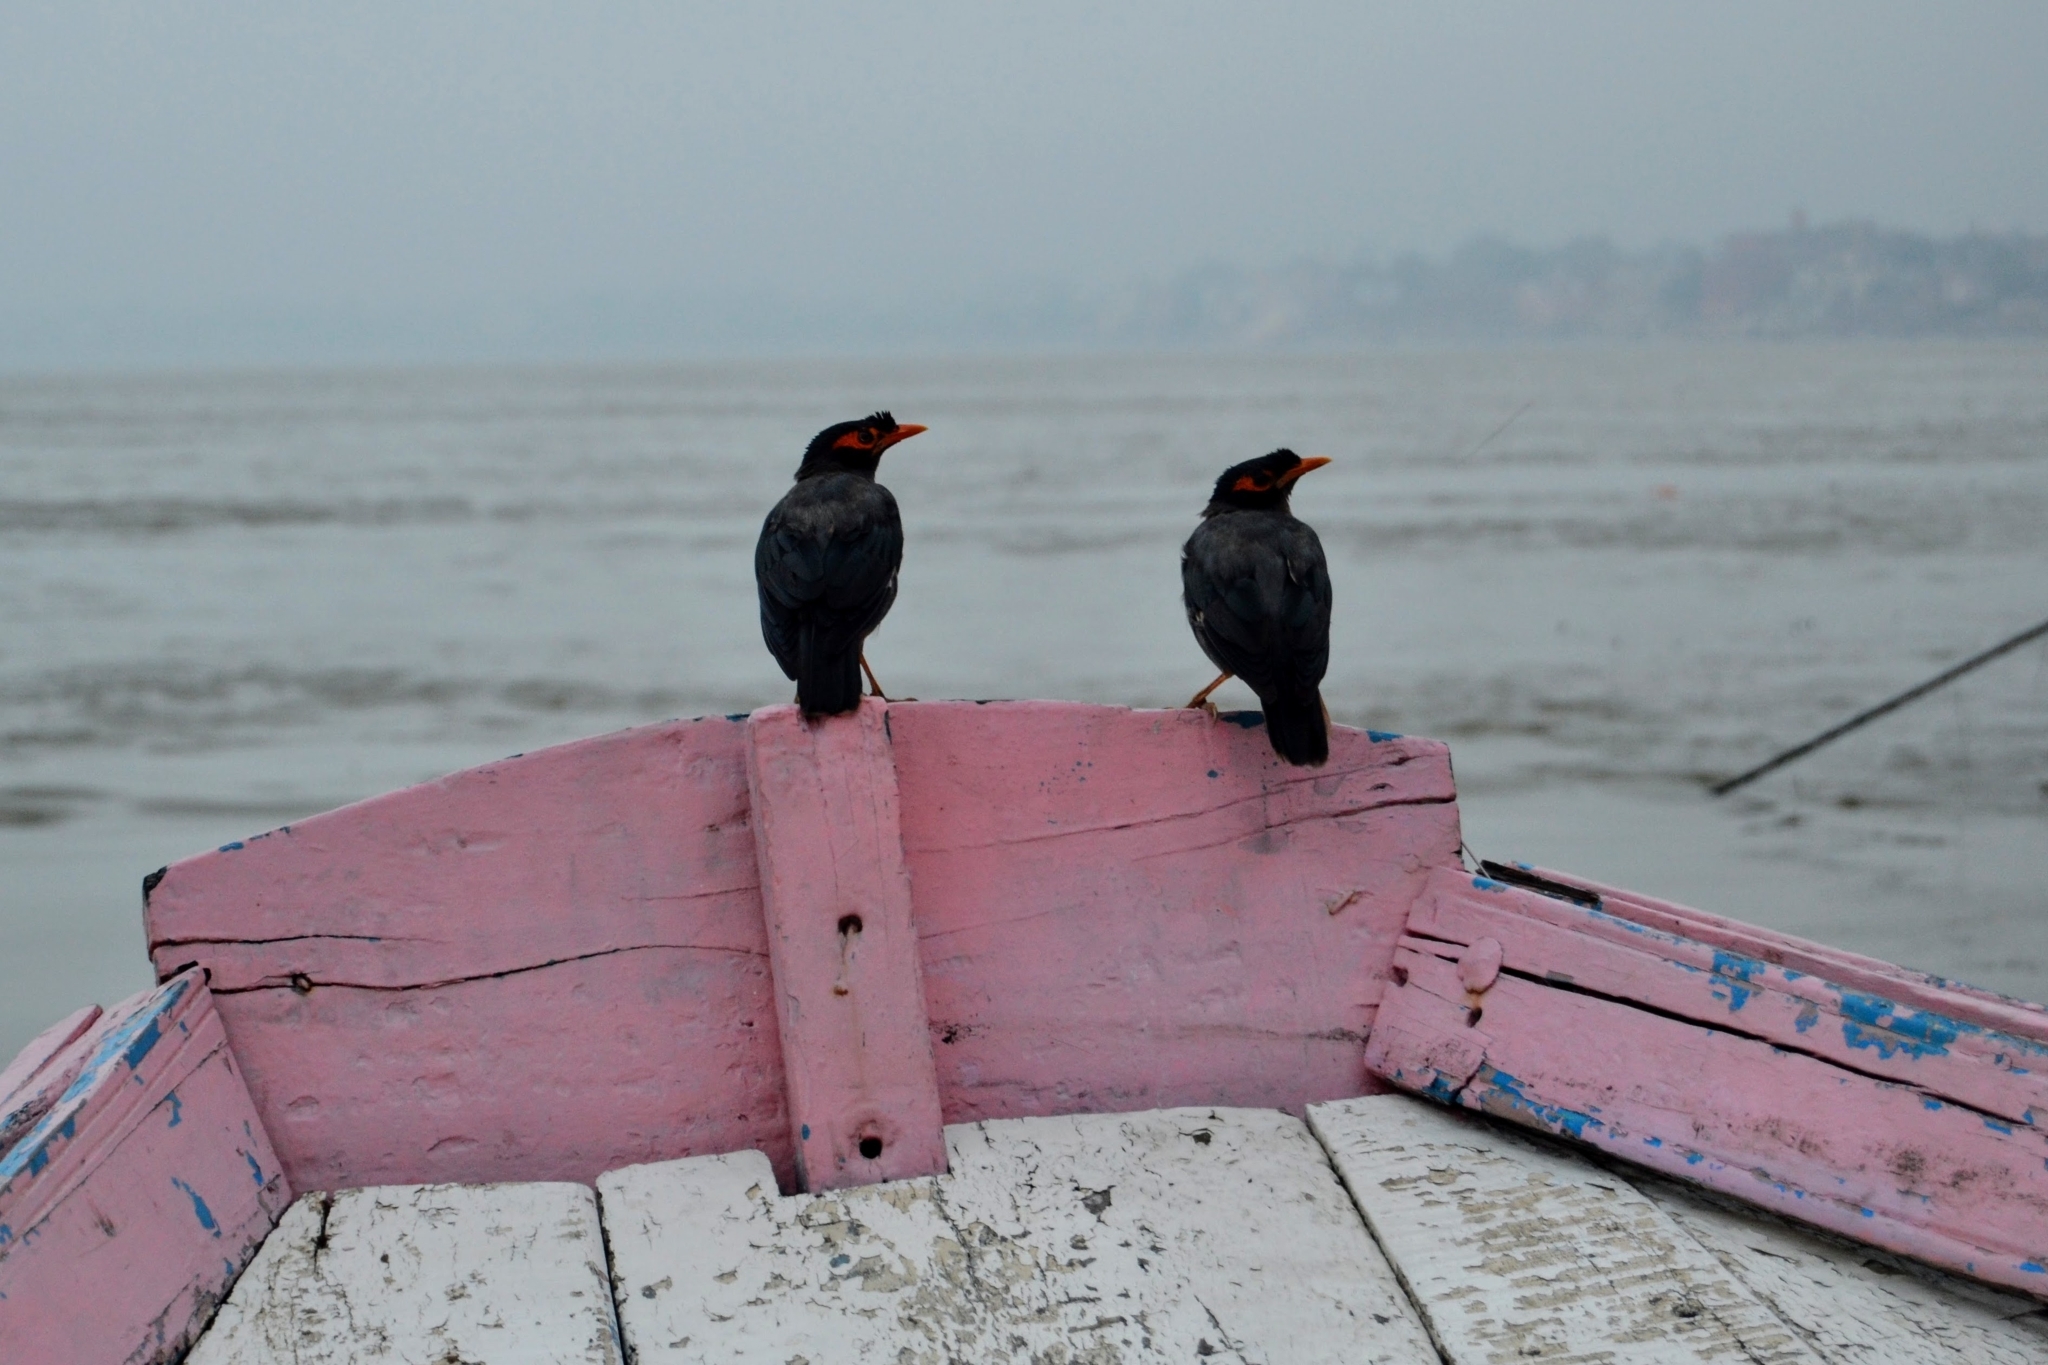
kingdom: Animalia
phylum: Chordata
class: Aves
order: Passeriformes
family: Sturnidae
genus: Acridotheres
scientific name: Acridotheres ginginianus
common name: Bank myna
